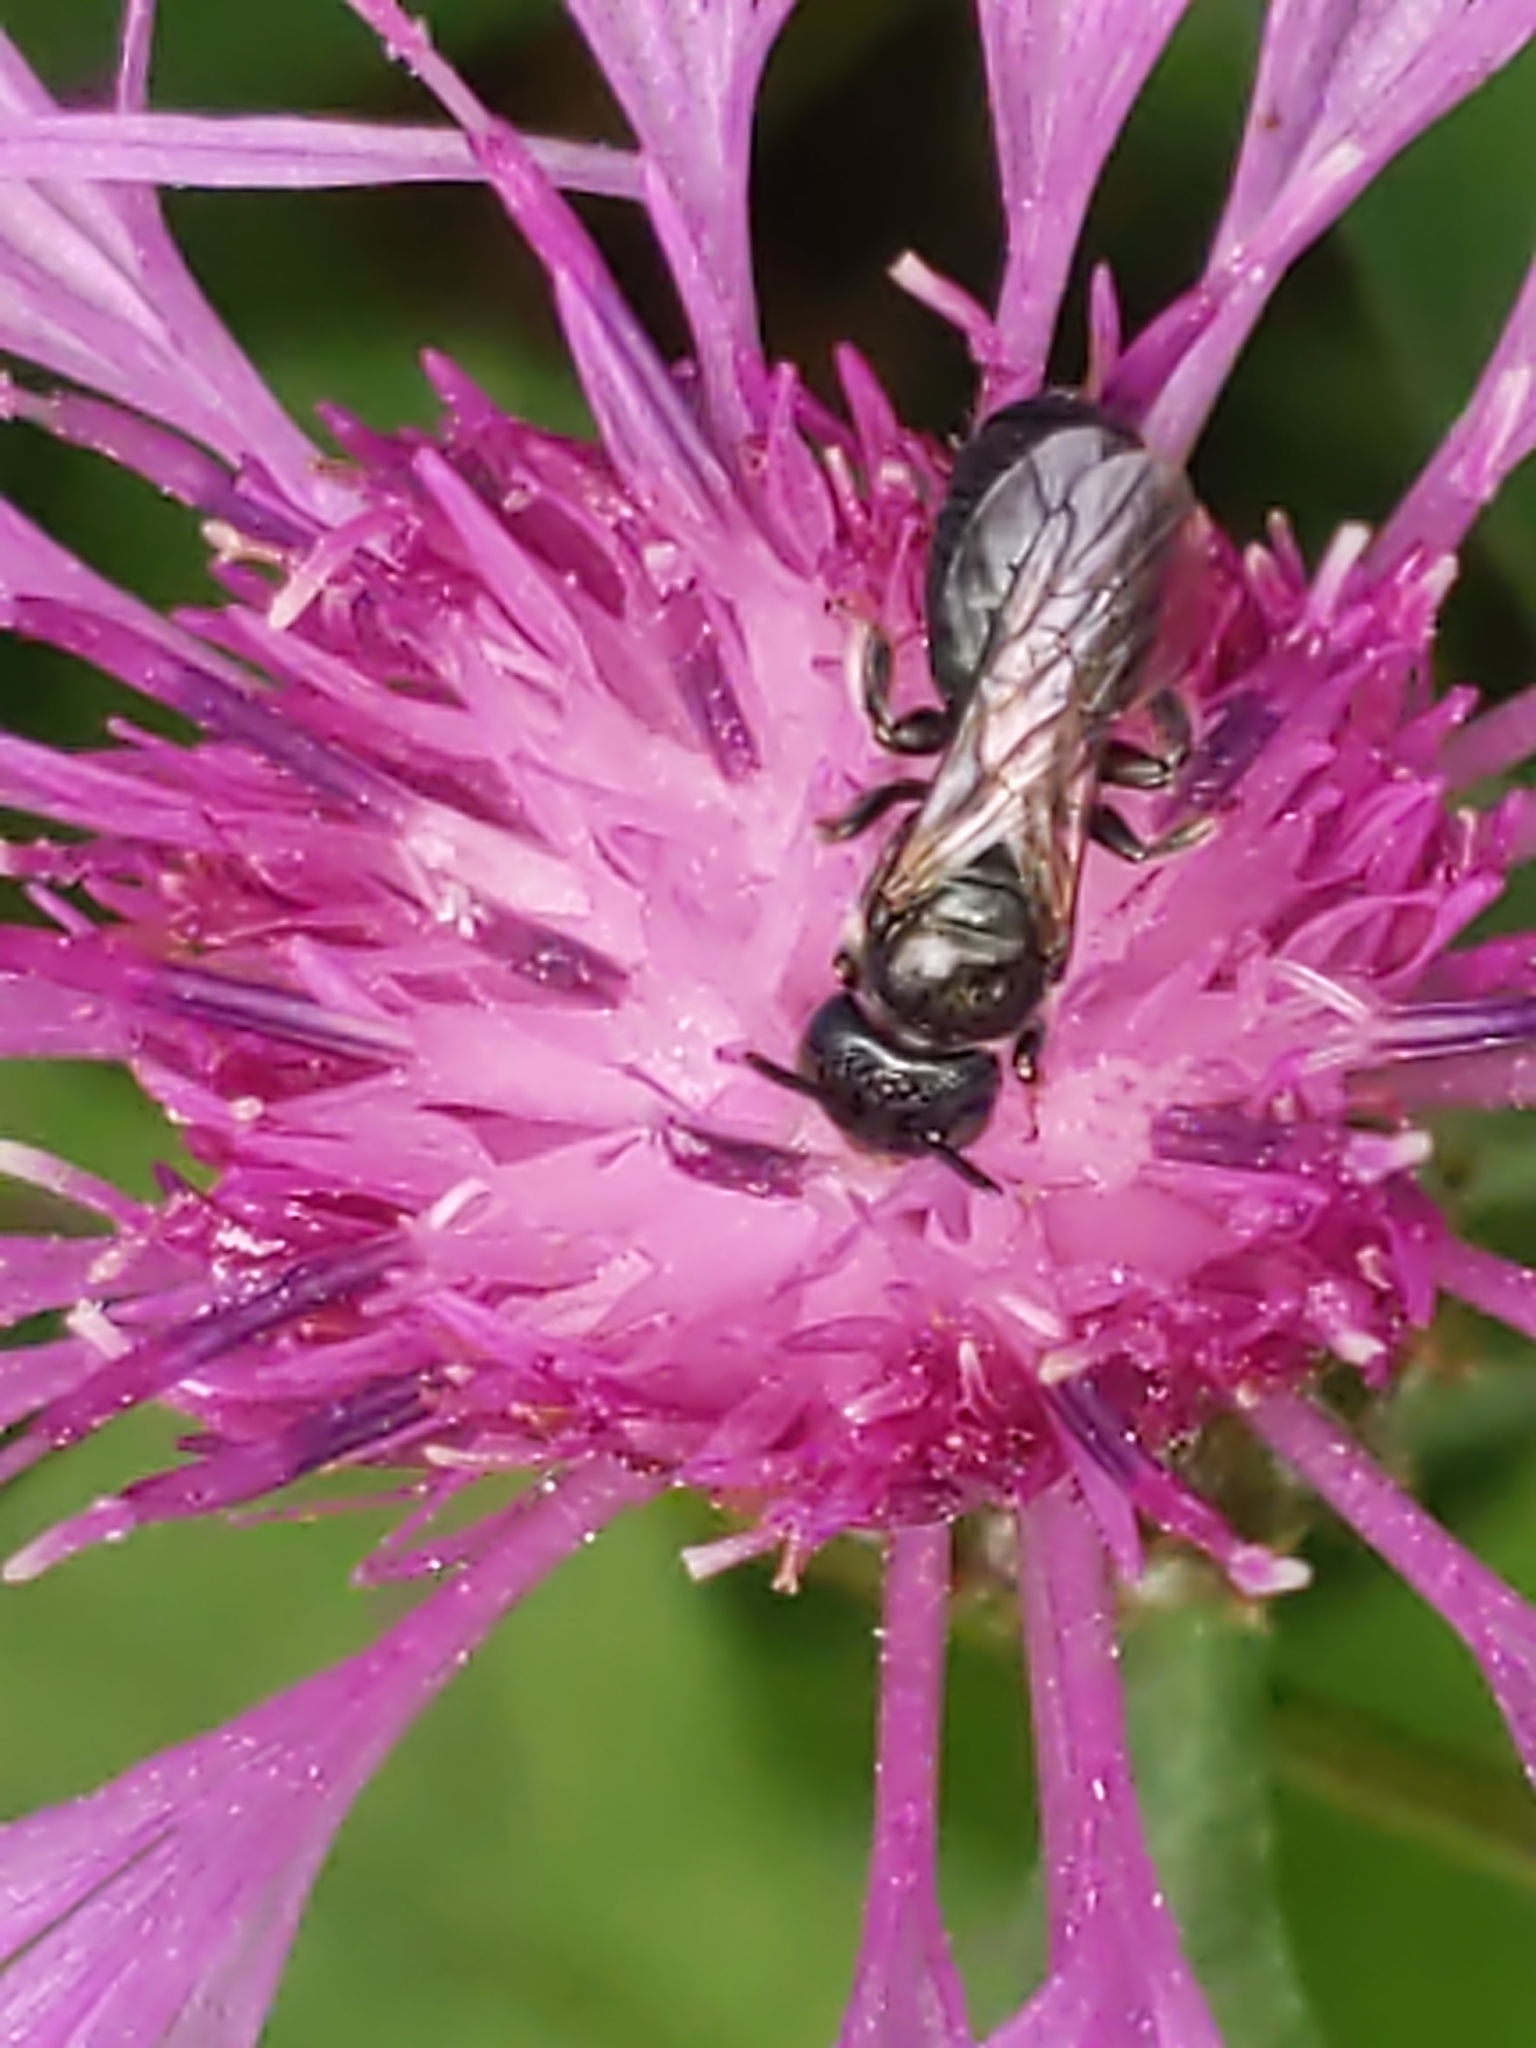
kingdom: Animalia
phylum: Arthropoda
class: Insecta
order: Hymenoptera
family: Apidae
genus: Zadontomerus
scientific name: Zadontomerus
